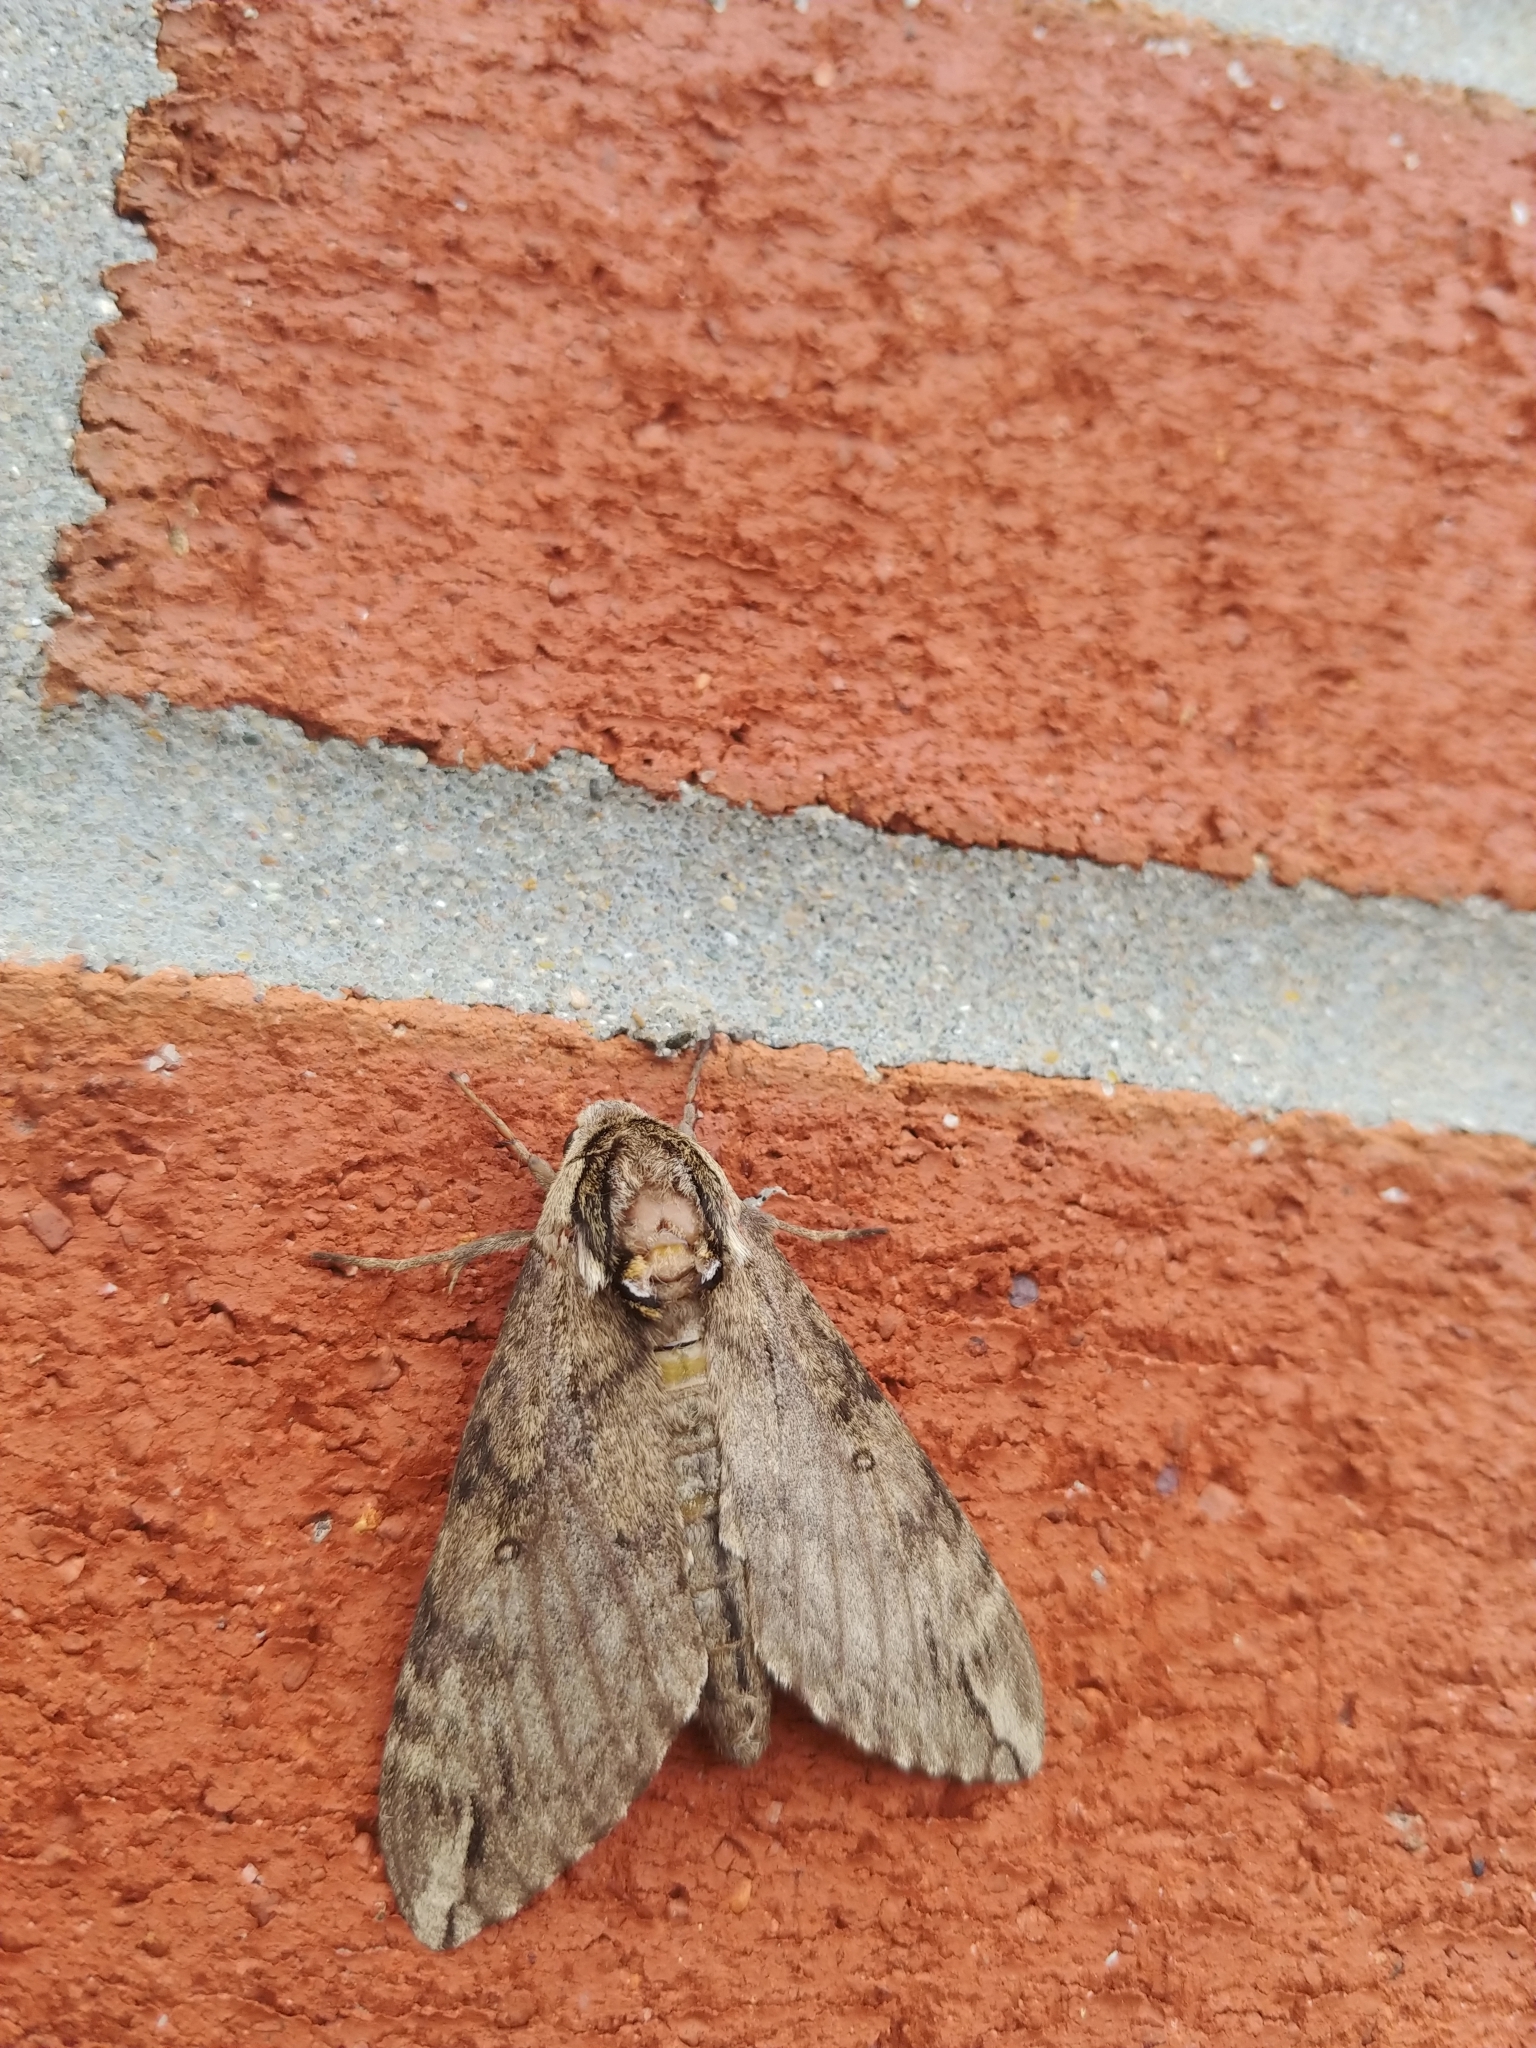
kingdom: Animalia
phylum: Arthropoda
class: Insecta
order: Lepidoptera
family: Sphingidae
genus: Ceratomia
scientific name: Ceratomia catalpae
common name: Catalpa hornworm
